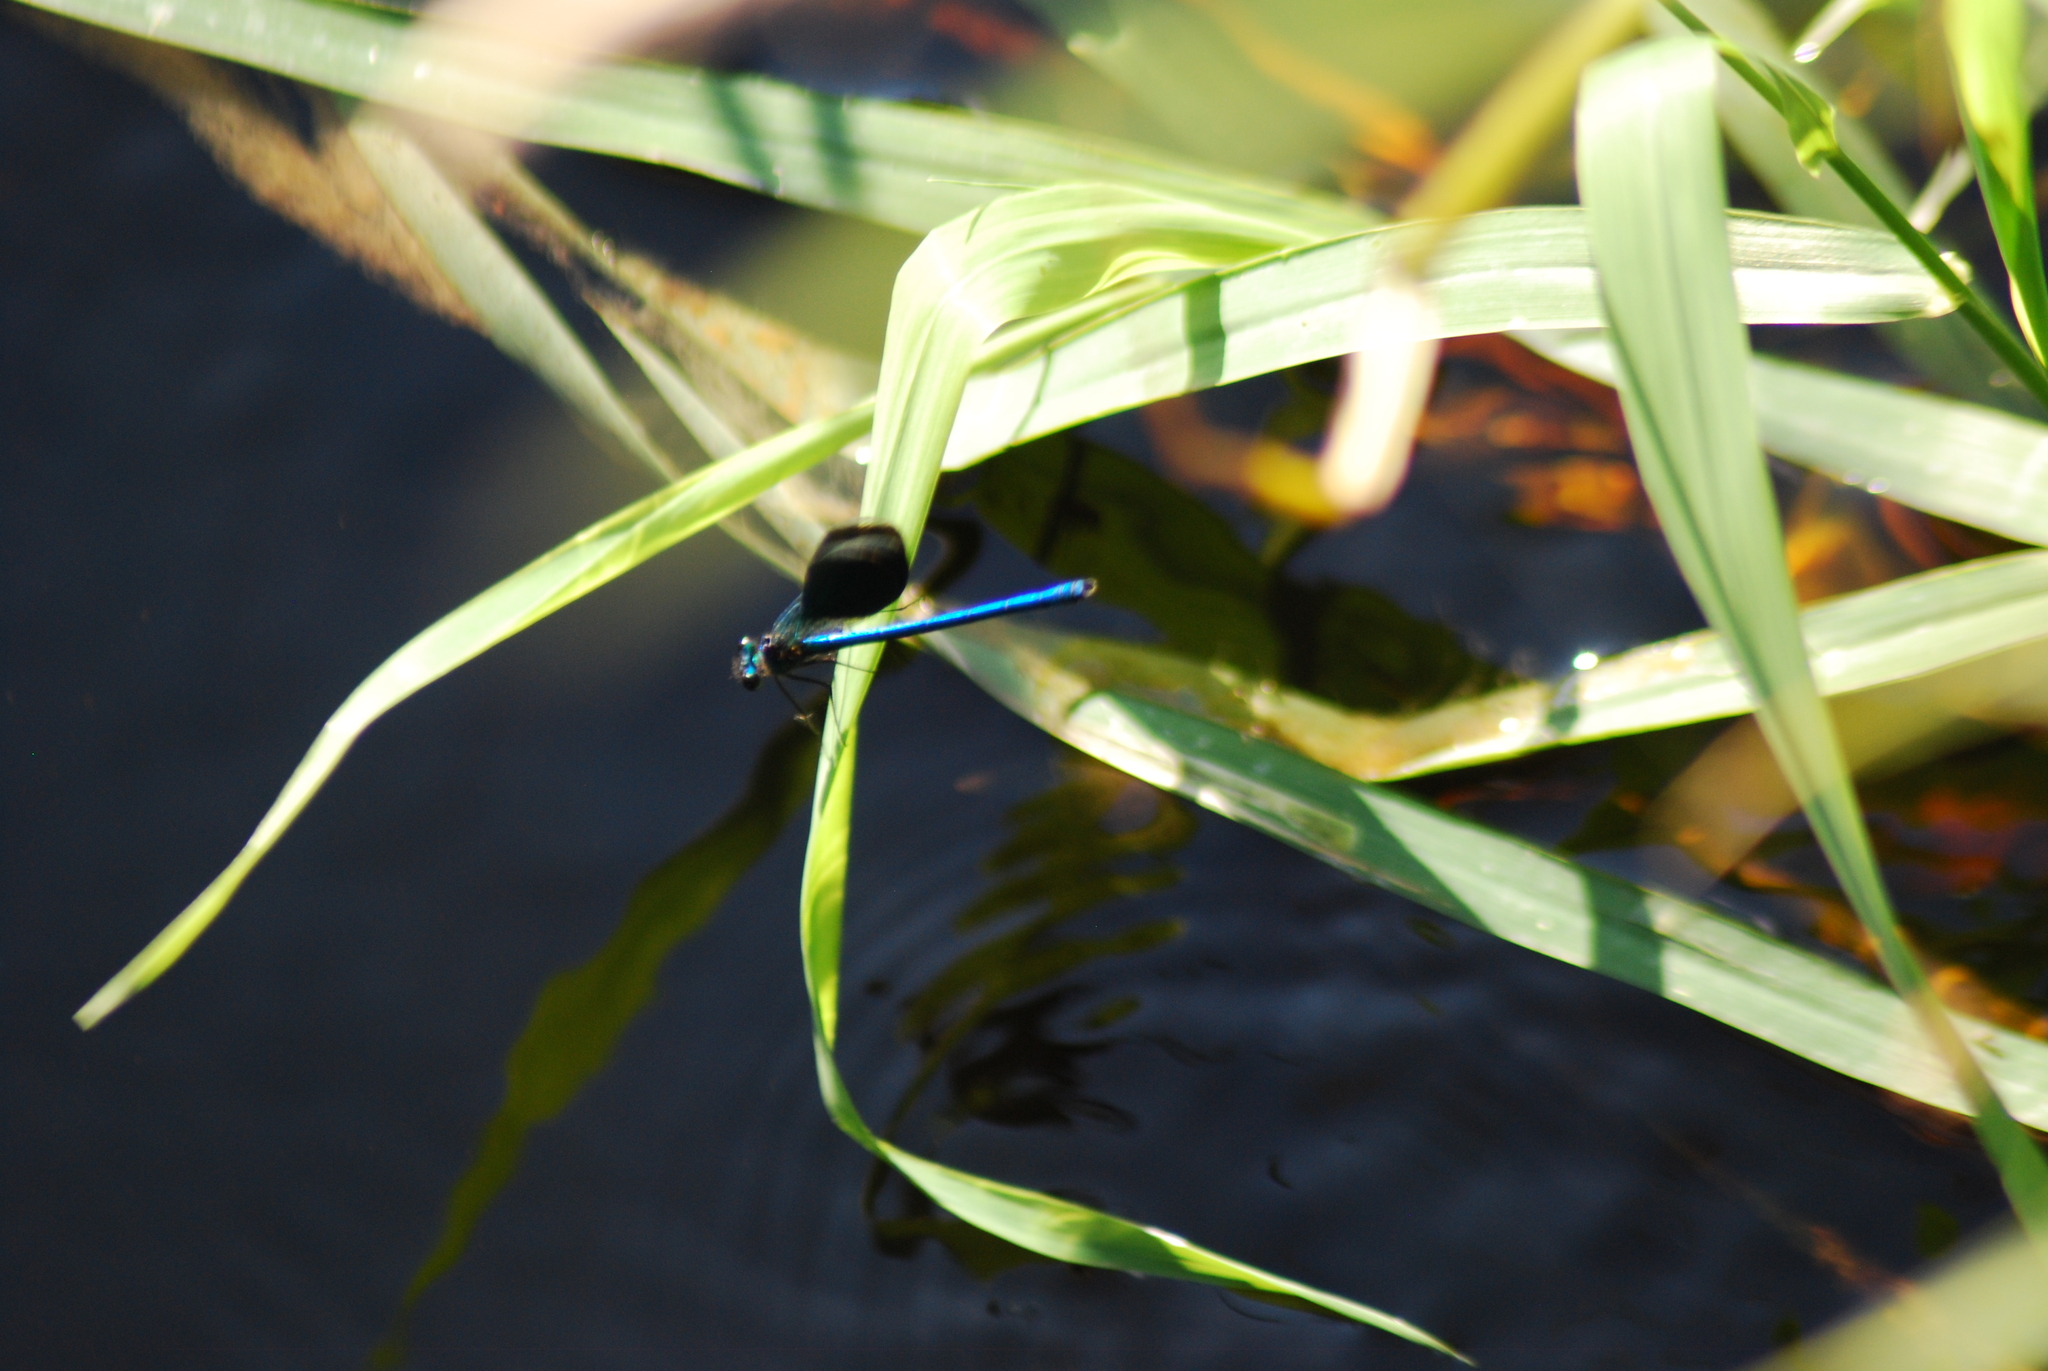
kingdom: Animalia
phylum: Arthropoda
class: Insecta
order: Odonata
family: Calopterygidae
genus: Calopteryx
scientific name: Calopteryx splendens
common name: Banded demoiselle
